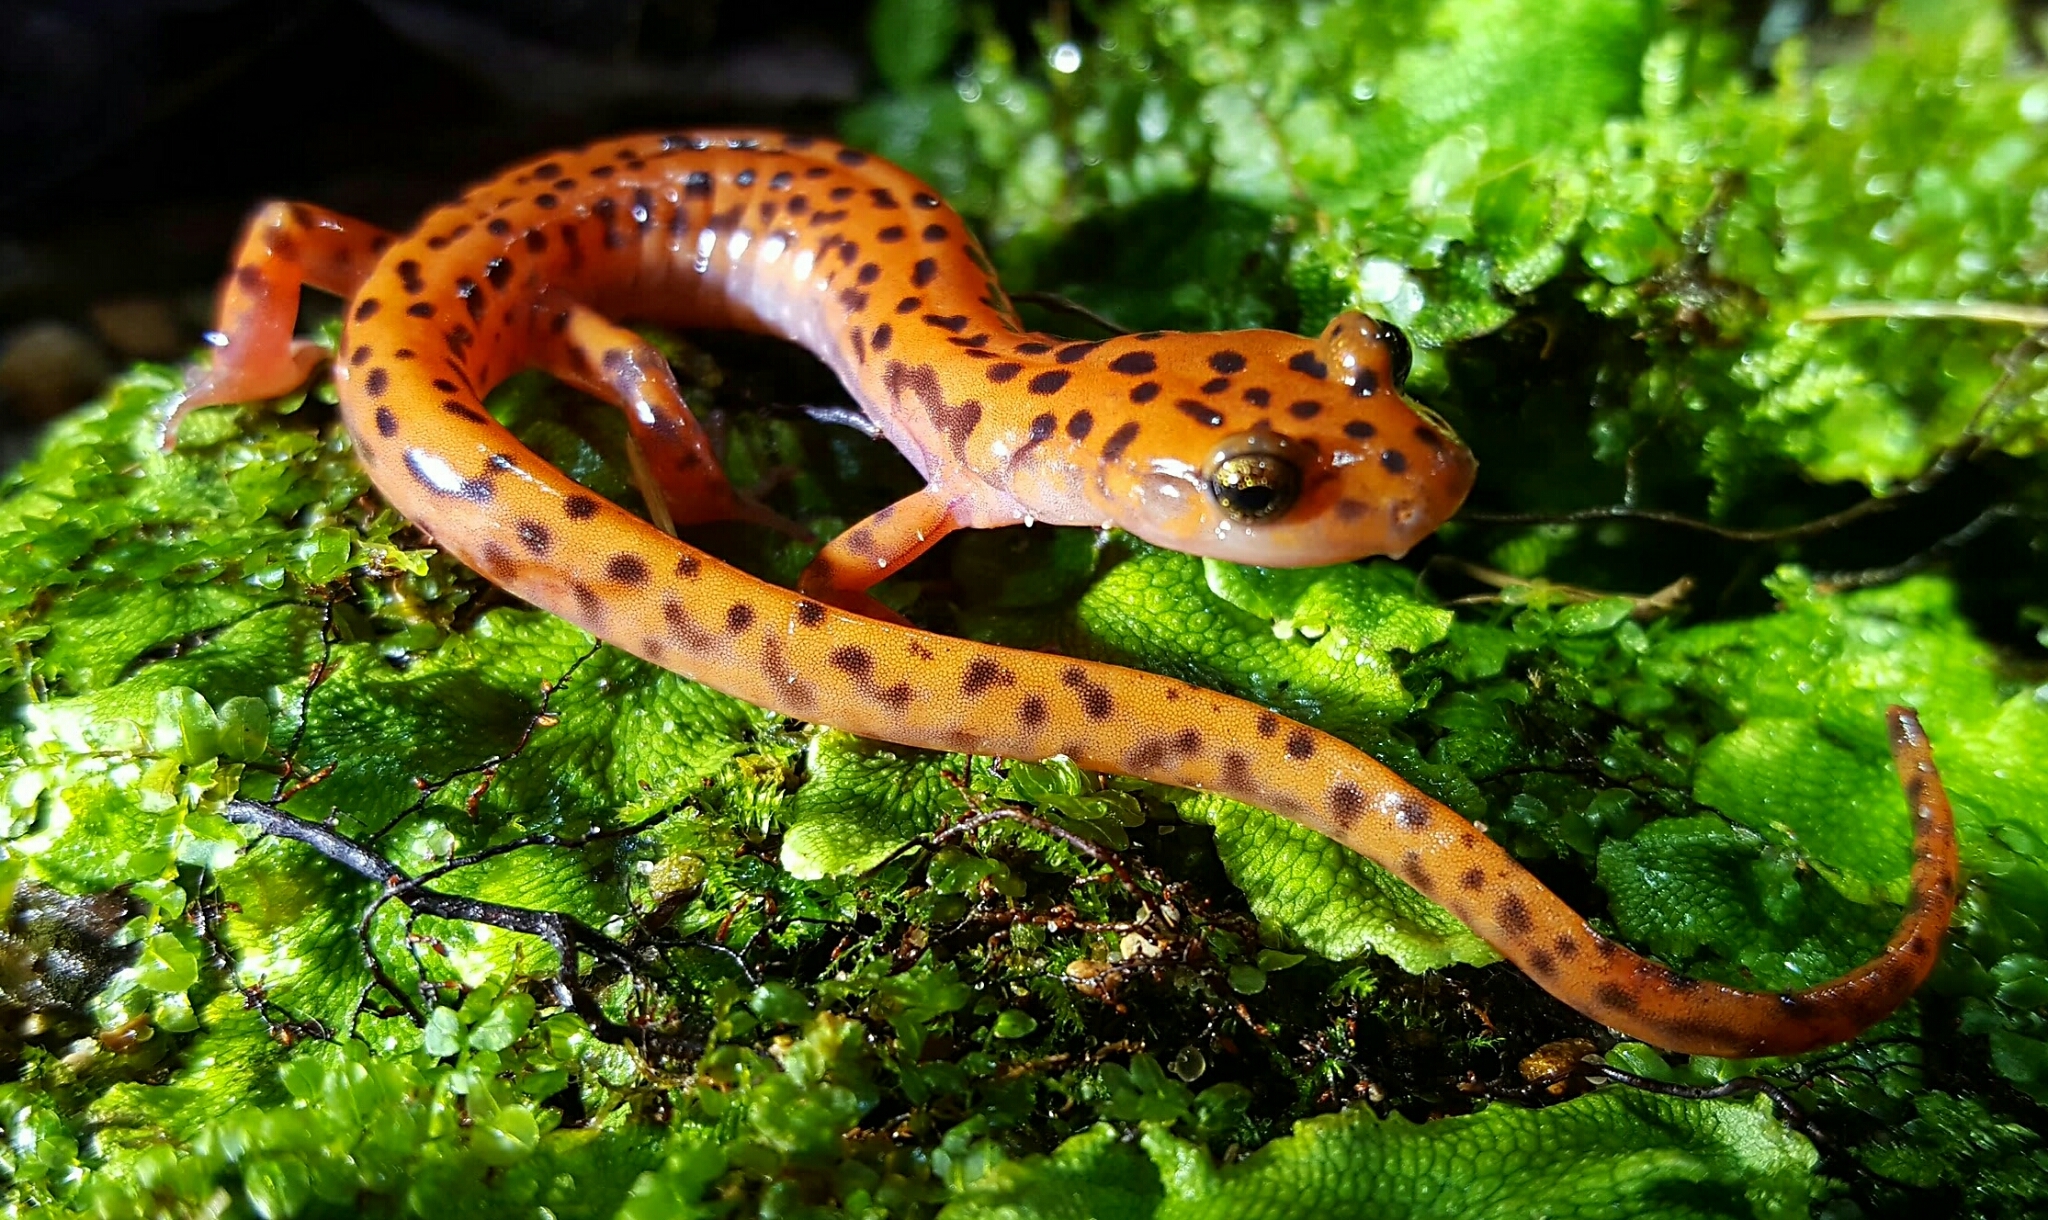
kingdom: Animalia
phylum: Chordata
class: Amphibia
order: Caudata
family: Plethodontidae
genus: Eurycea
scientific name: Eurycea lucifuga
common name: Cave salamander
